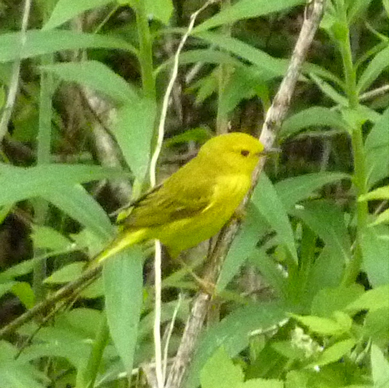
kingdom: Animalia
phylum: Chordata
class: Aves
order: Passeriformes
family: Parulidae
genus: Setophaga
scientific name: Setophaga petechia
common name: Yellow warbler
